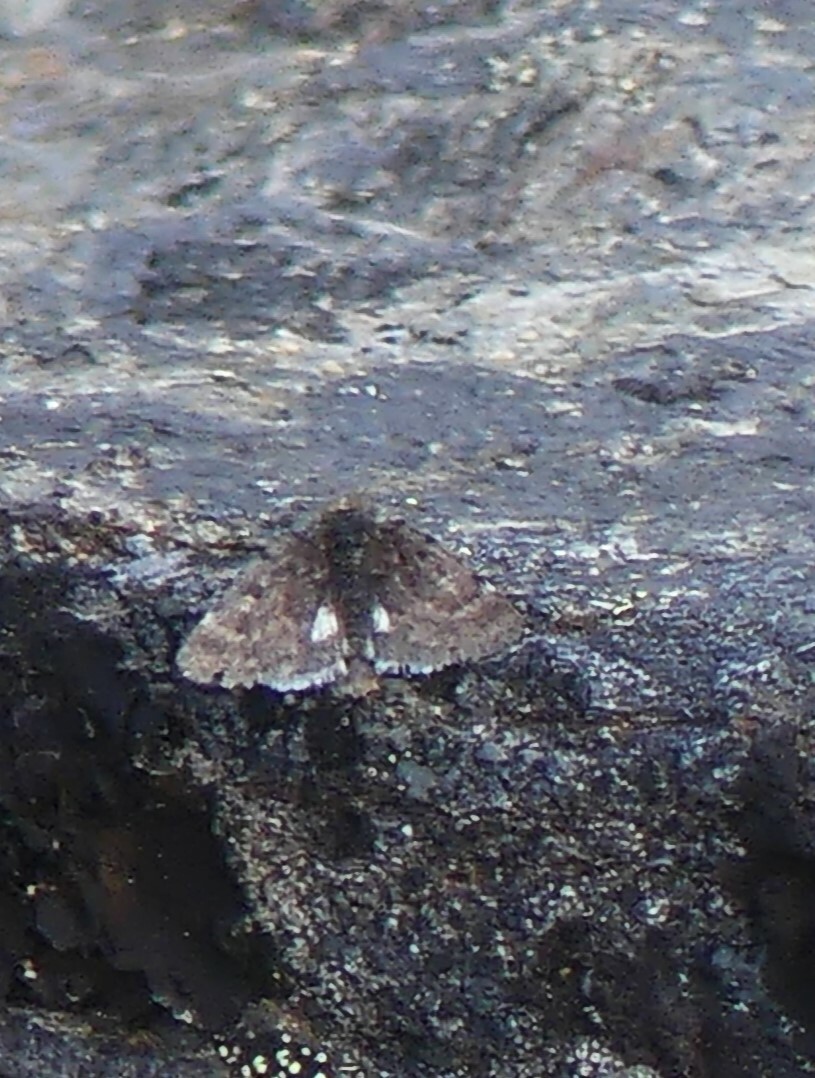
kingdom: Animalia
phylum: Arthropoda
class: Insecta
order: Lepidoptera
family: Noctuidae
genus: Sympistis
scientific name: Sympistis nigrita
